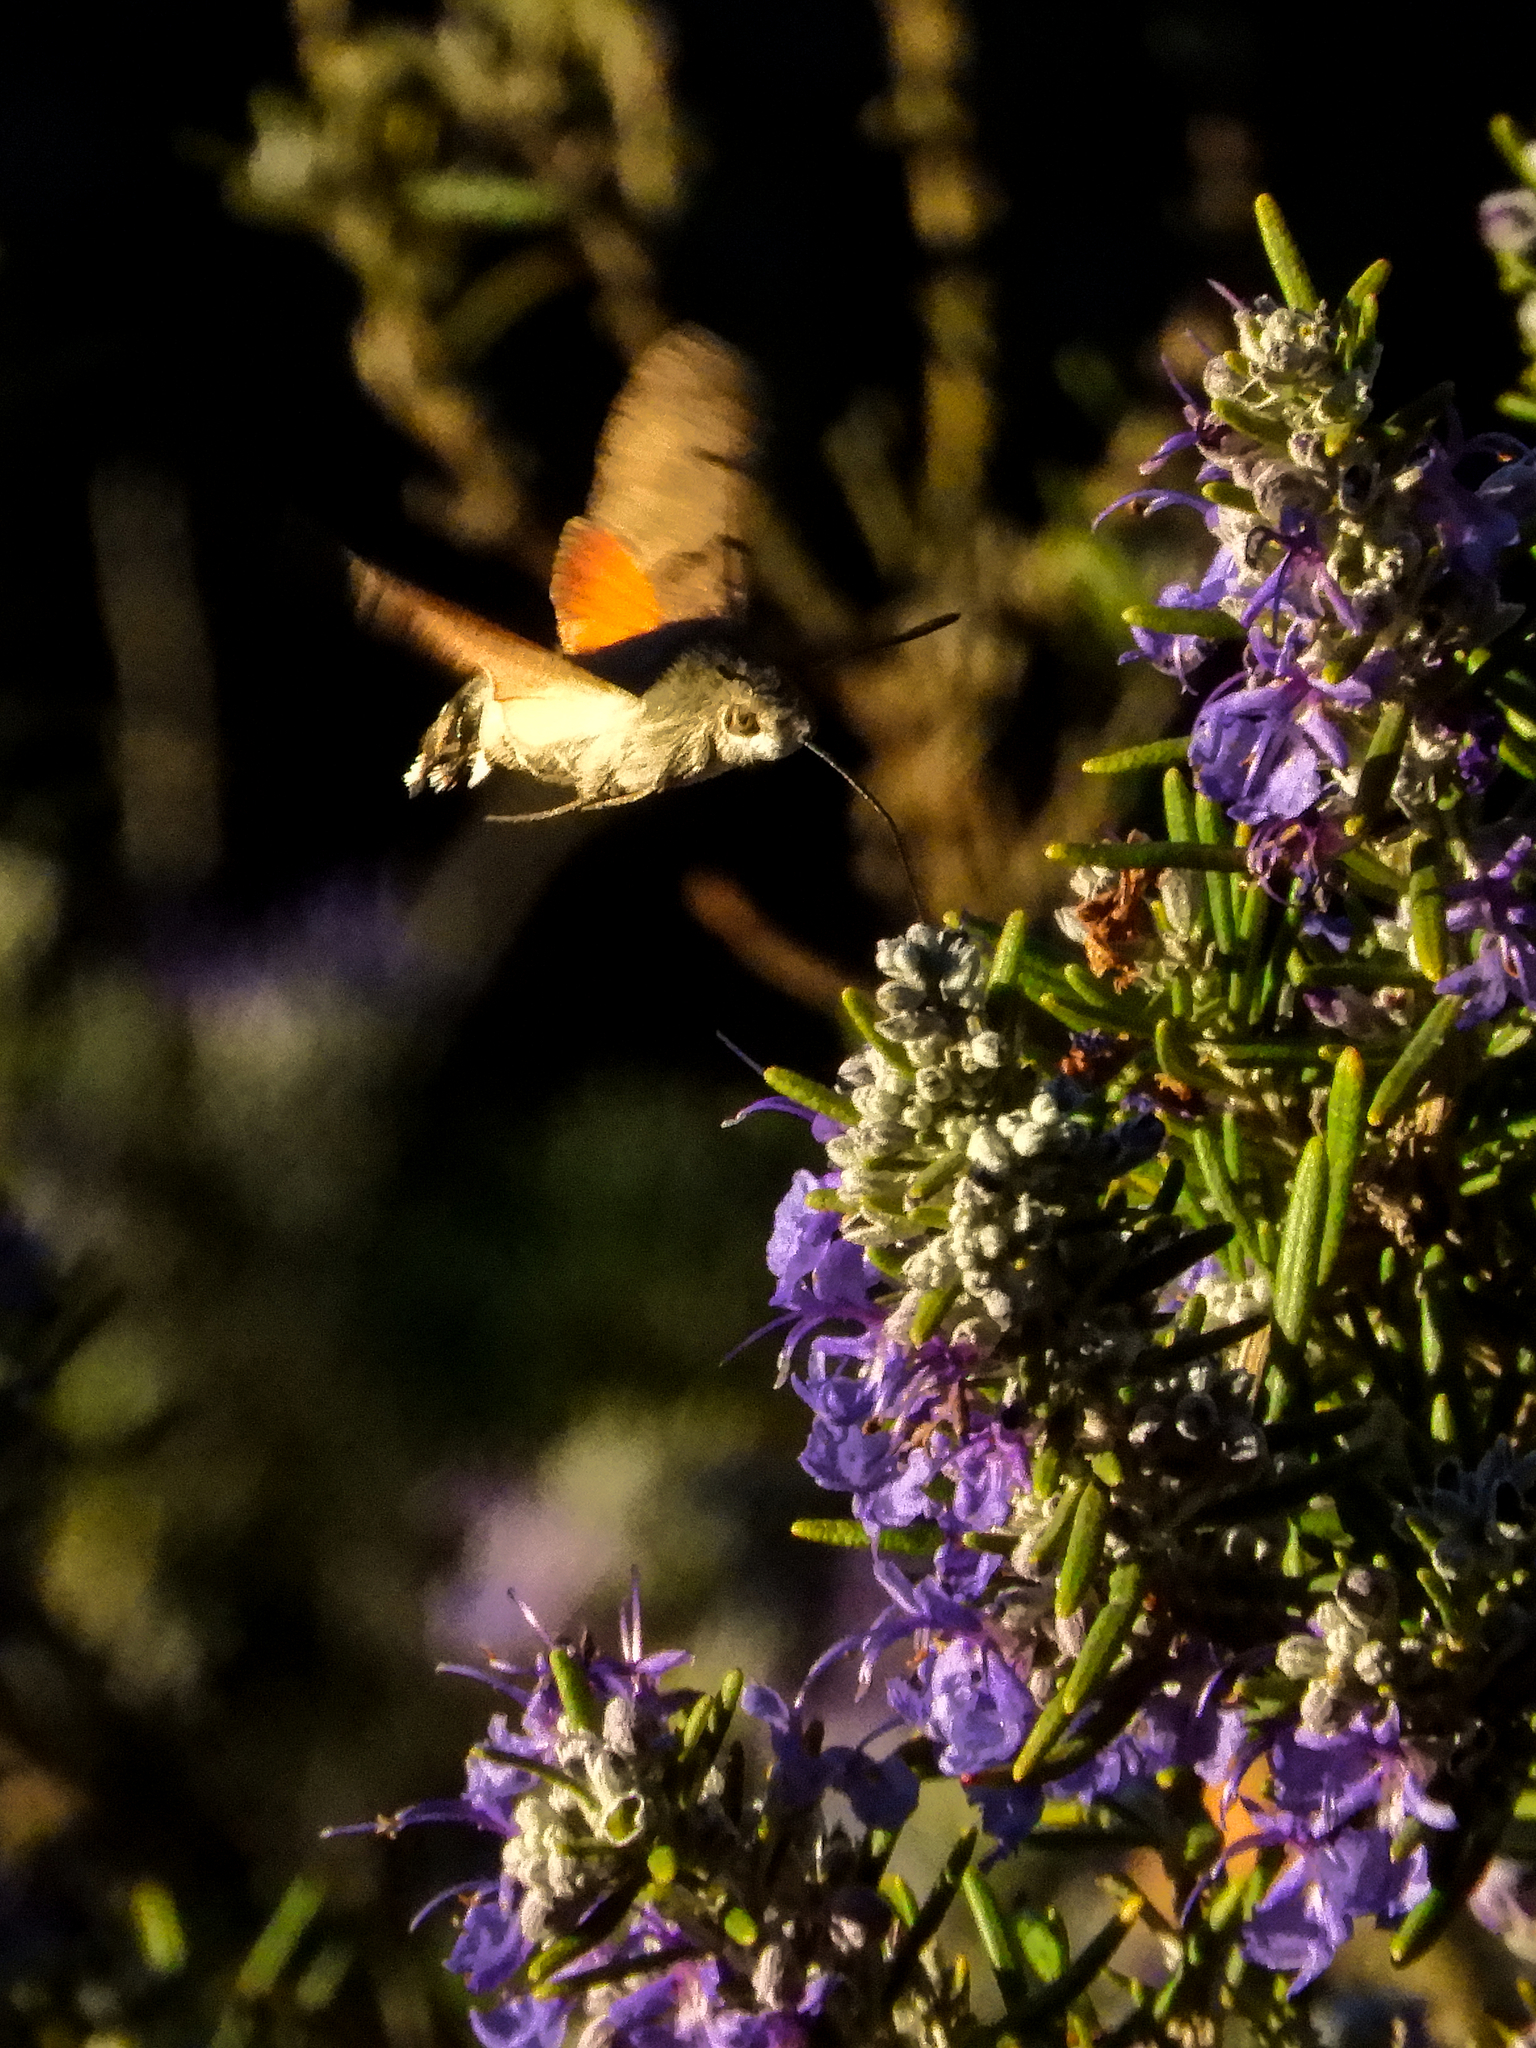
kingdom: Animalia
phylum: Arthropoda
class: Insecta
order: Lepidoptera
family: Sphingidae
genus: Macroglossum
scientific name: Macroglossum stellatarum
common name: Humming-bird hawk-moth
